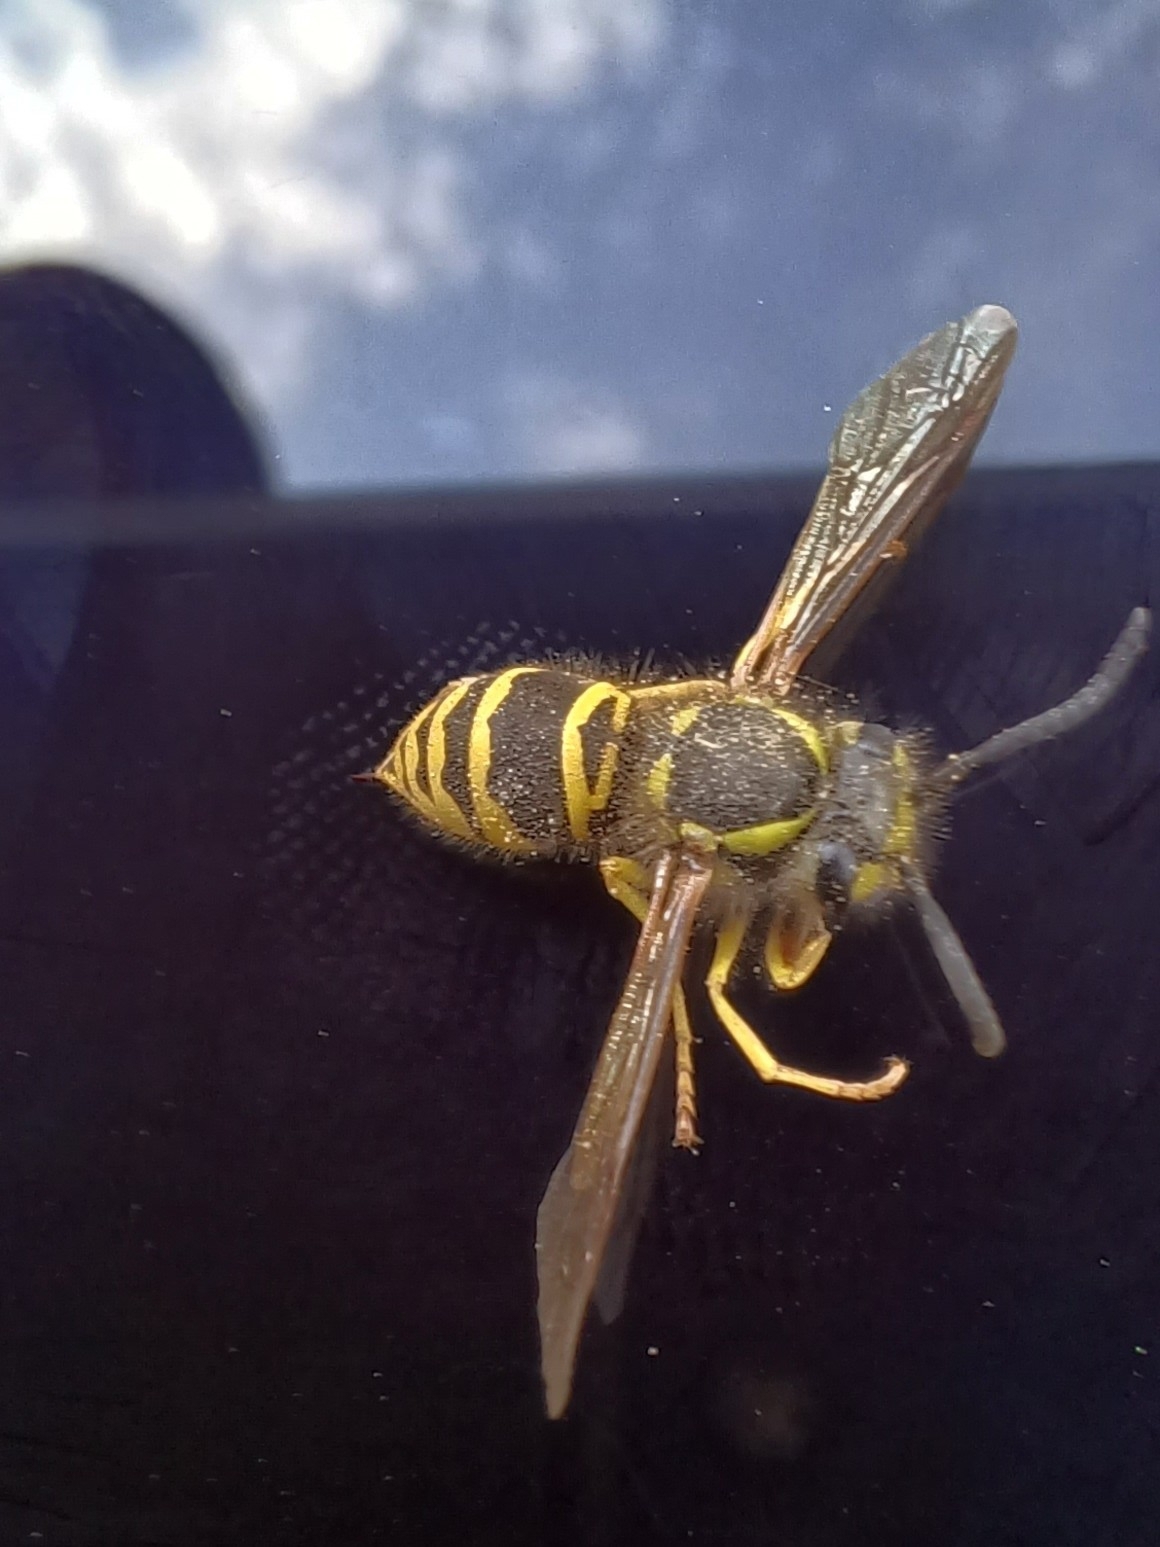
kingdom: Animalia
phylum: Arthropoda
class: Insecta
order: Hymenoptera
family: Vespidae
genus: Vespula
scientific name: Vespula maculifrons
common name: Eastern yellowjacket
